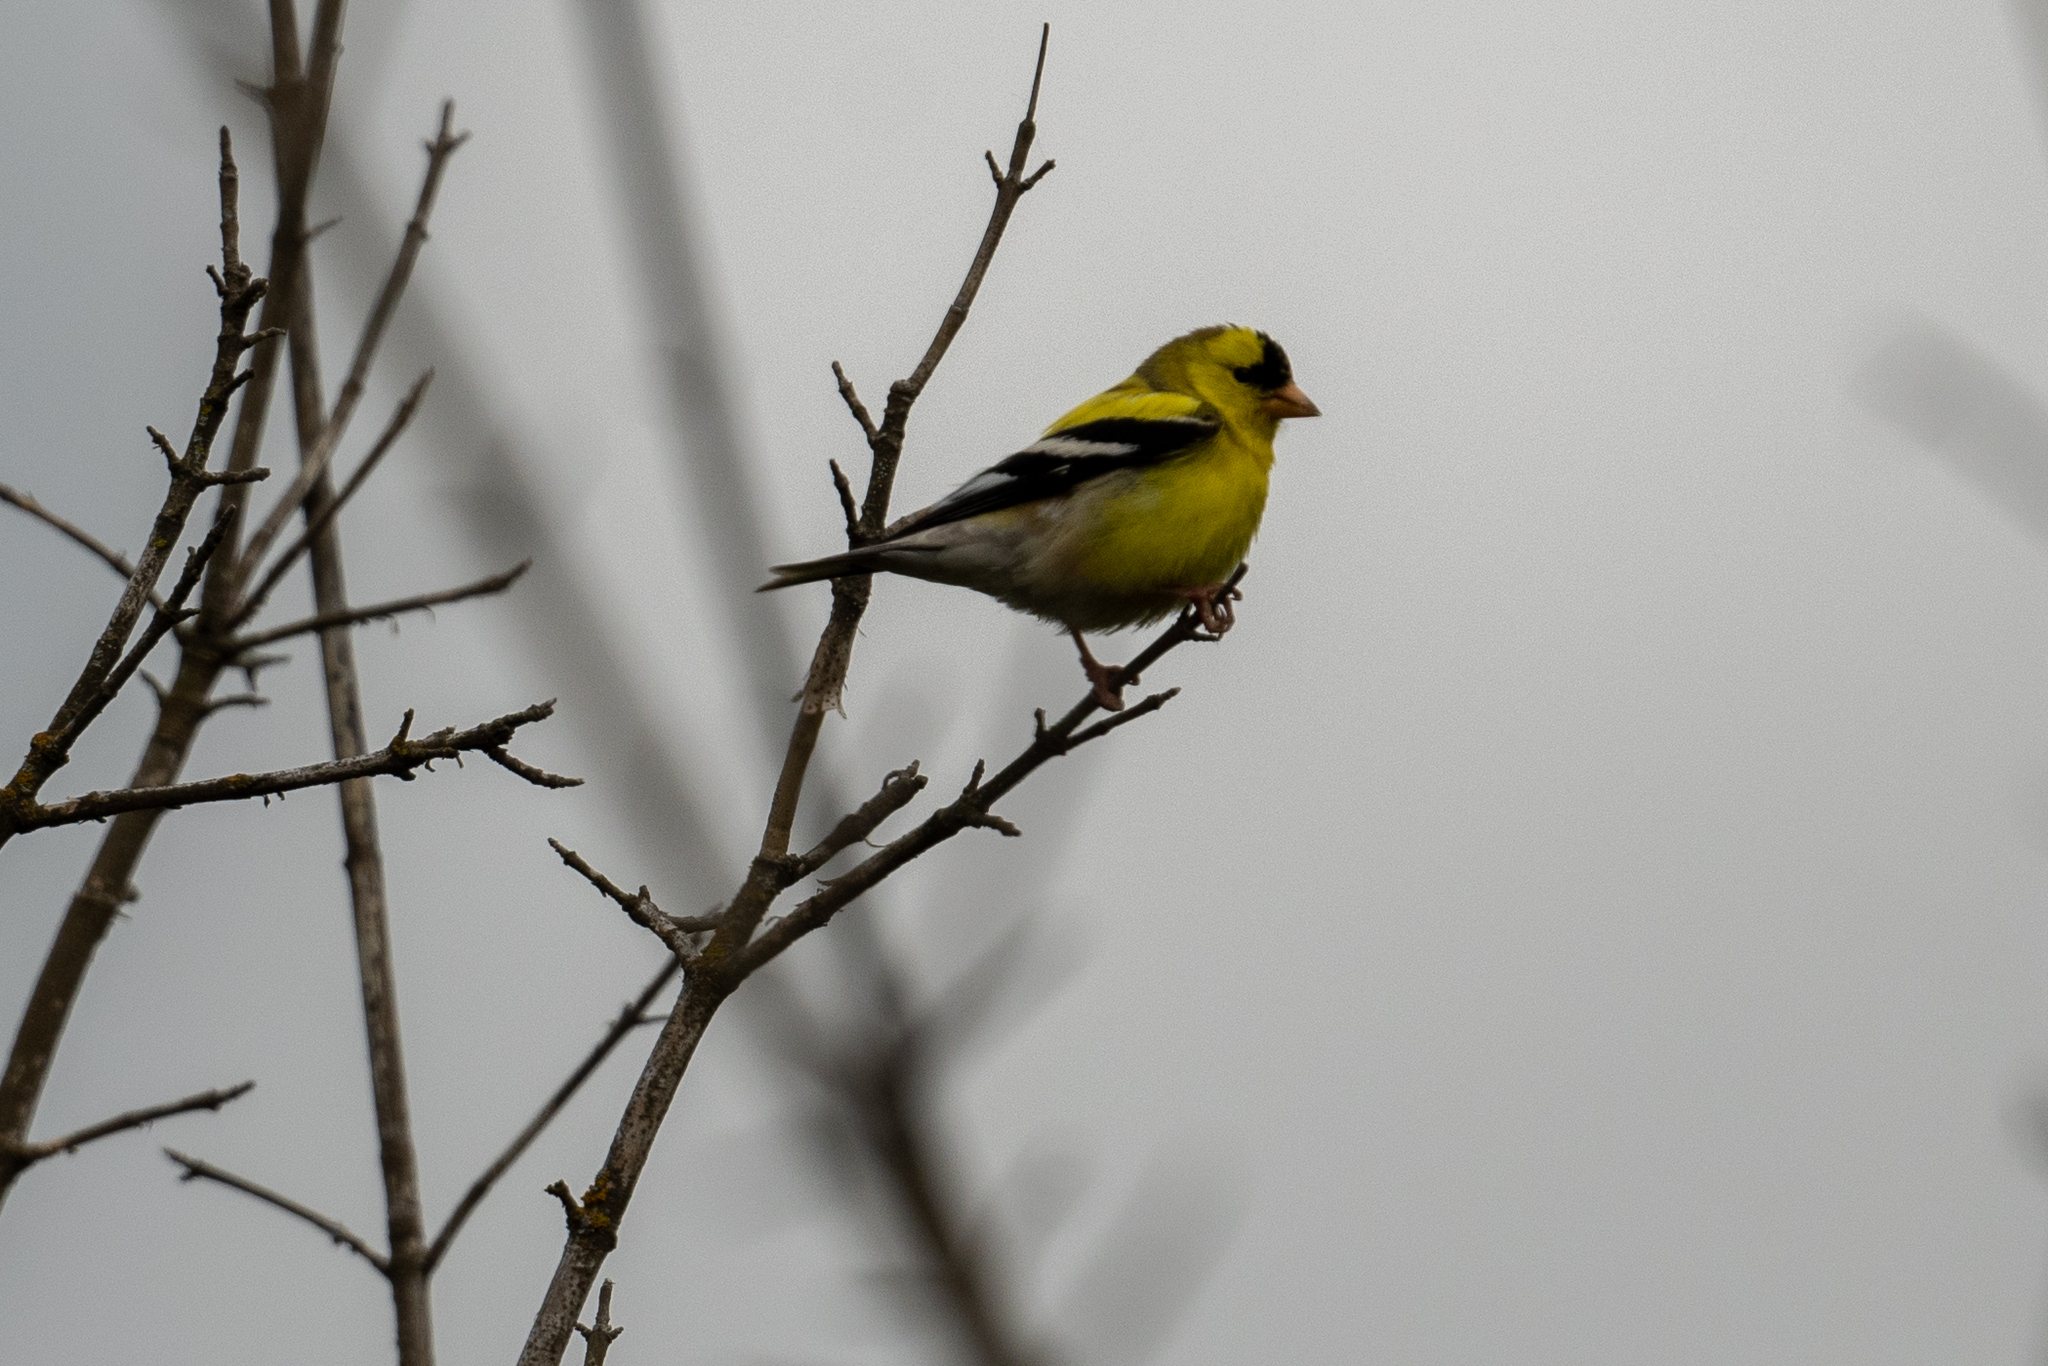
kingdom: Animalia
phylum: Chordata
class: Aves
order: Passeriformes
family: Fringillidae
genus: Spinus
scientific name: Spinus tristis
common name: American goldfinch
